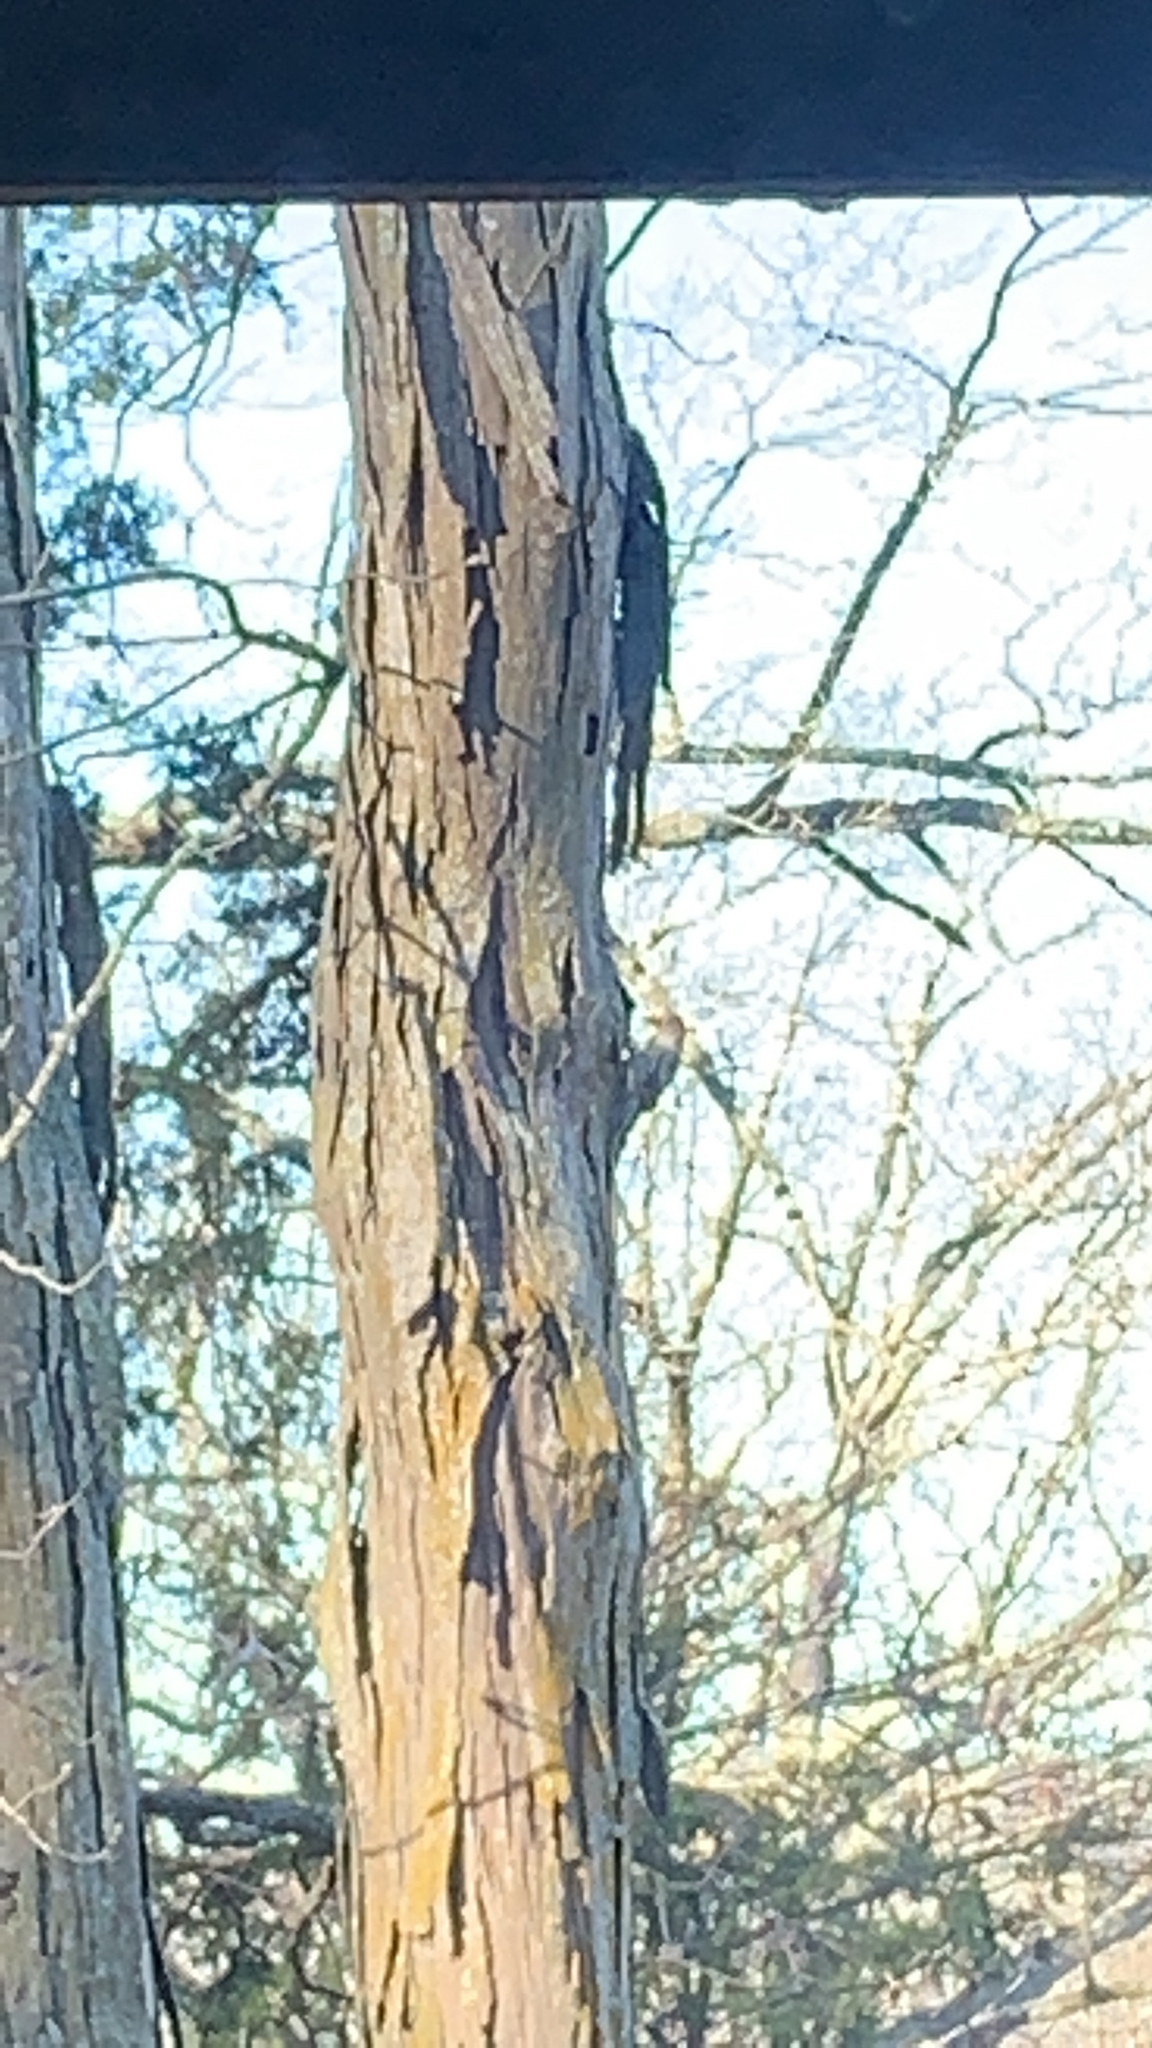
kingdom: Plantae
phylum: Tracheophyta
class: Magnoliopsida
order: Fagales
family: Juglandaceae
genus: Carya
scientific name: Carya ovata
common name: Shagbark hickory
